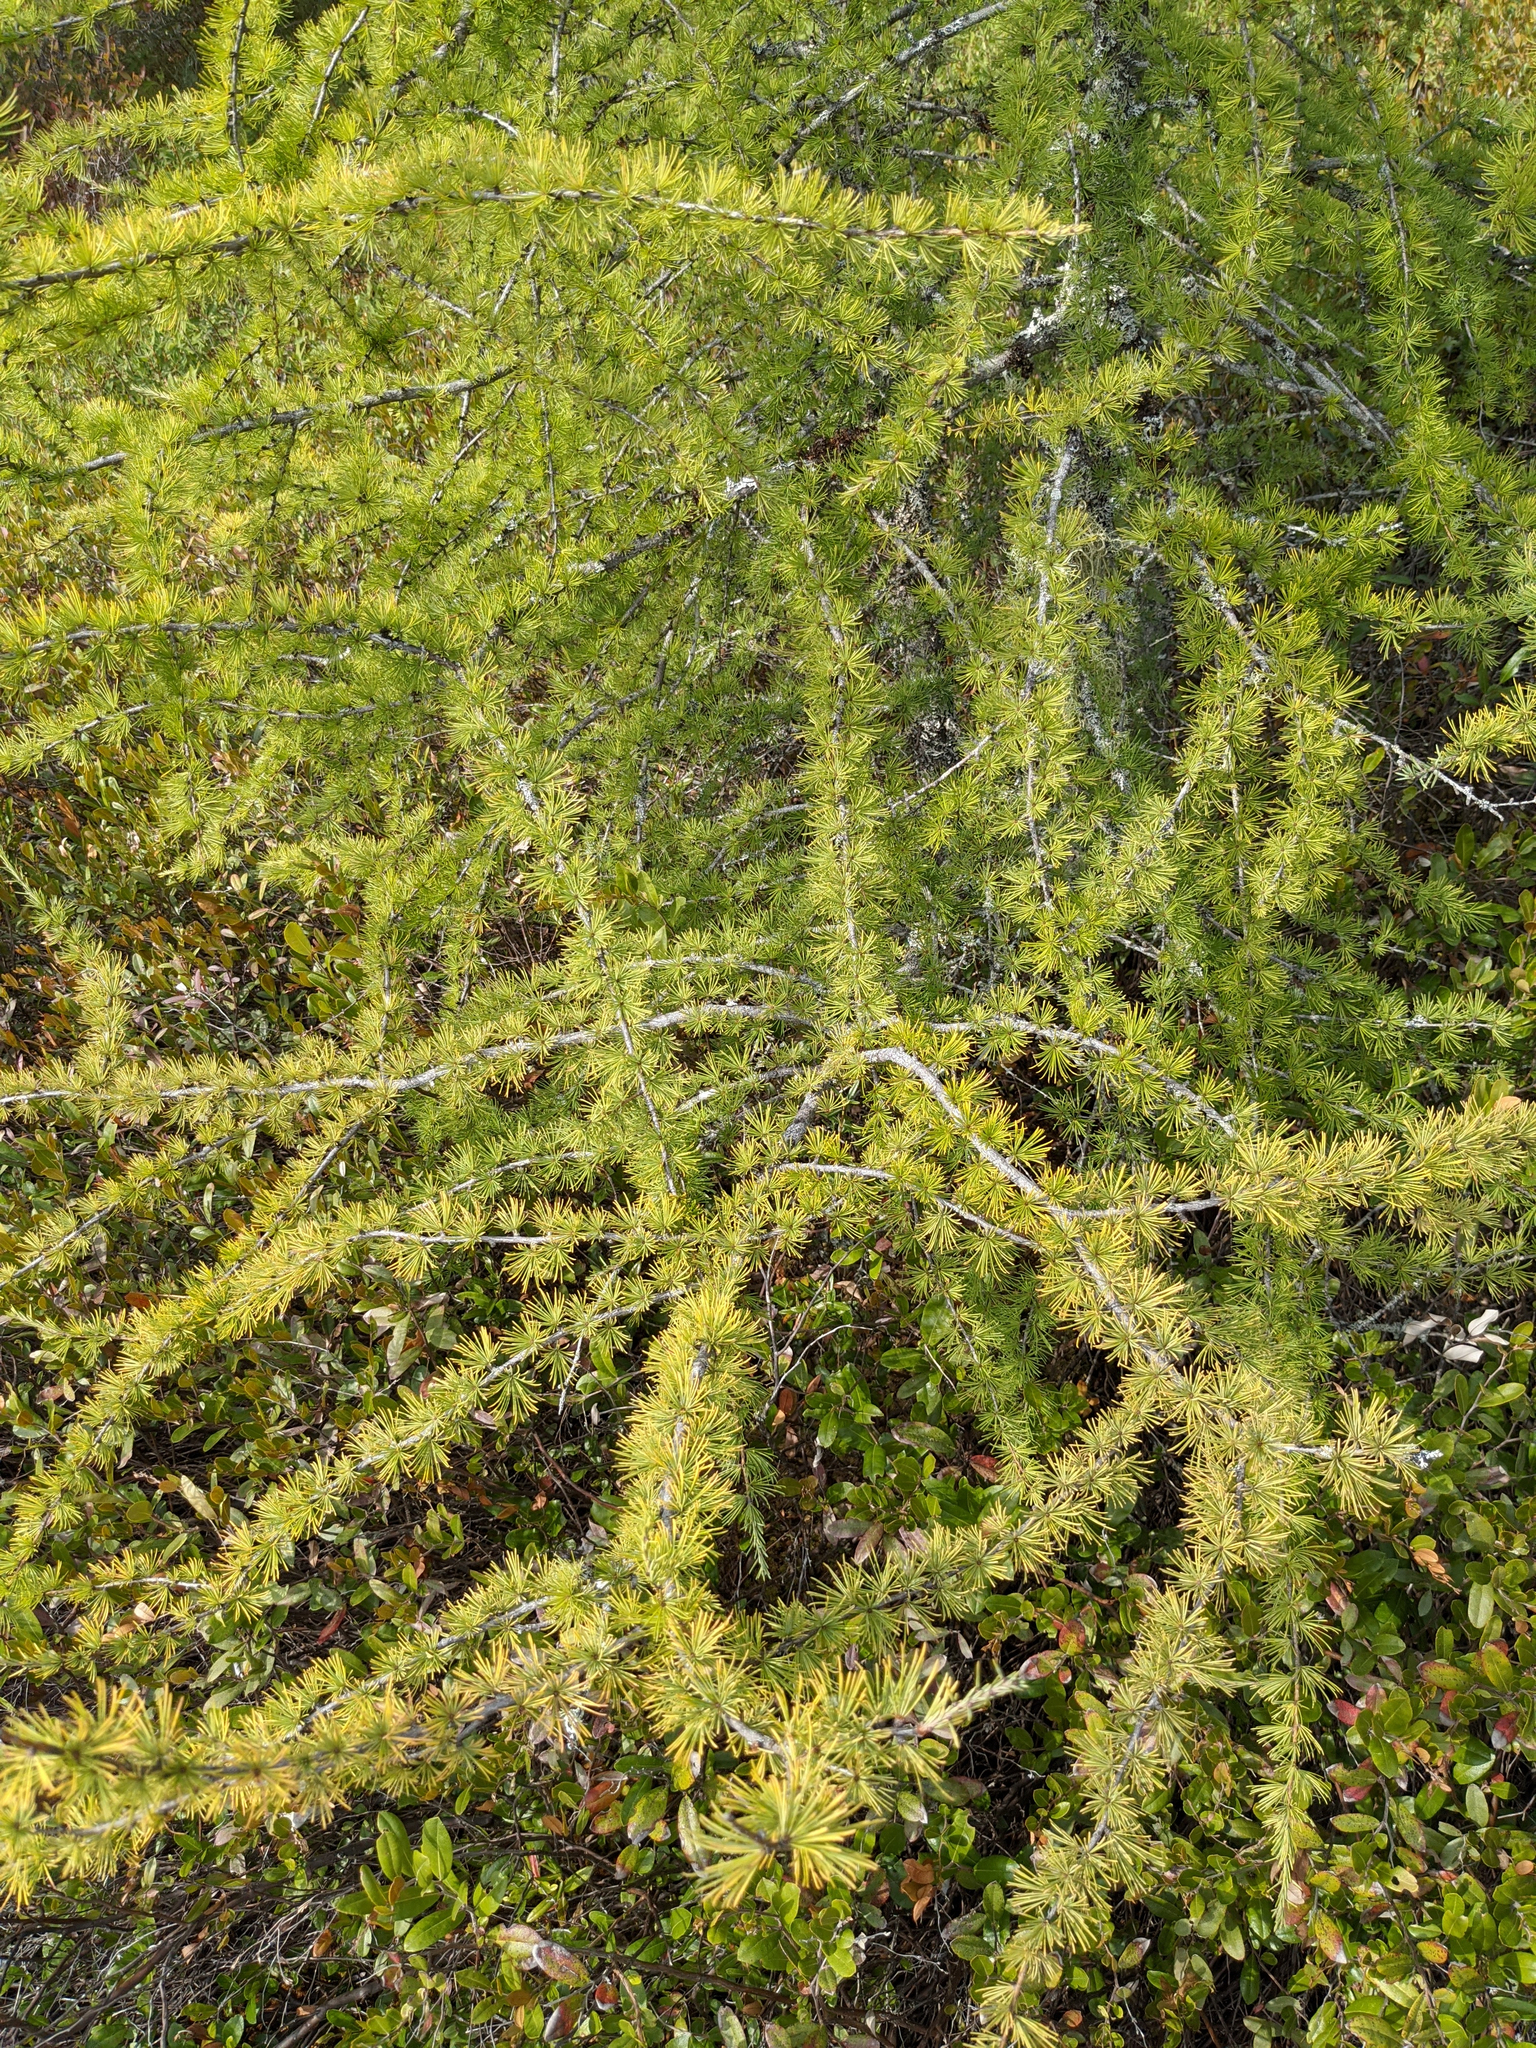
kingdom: Plantae
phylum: Tracheophyta
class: Pinopsida
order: Pinales
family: Pinaceae
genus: Larix
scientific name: Larix laricina
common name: American larch
